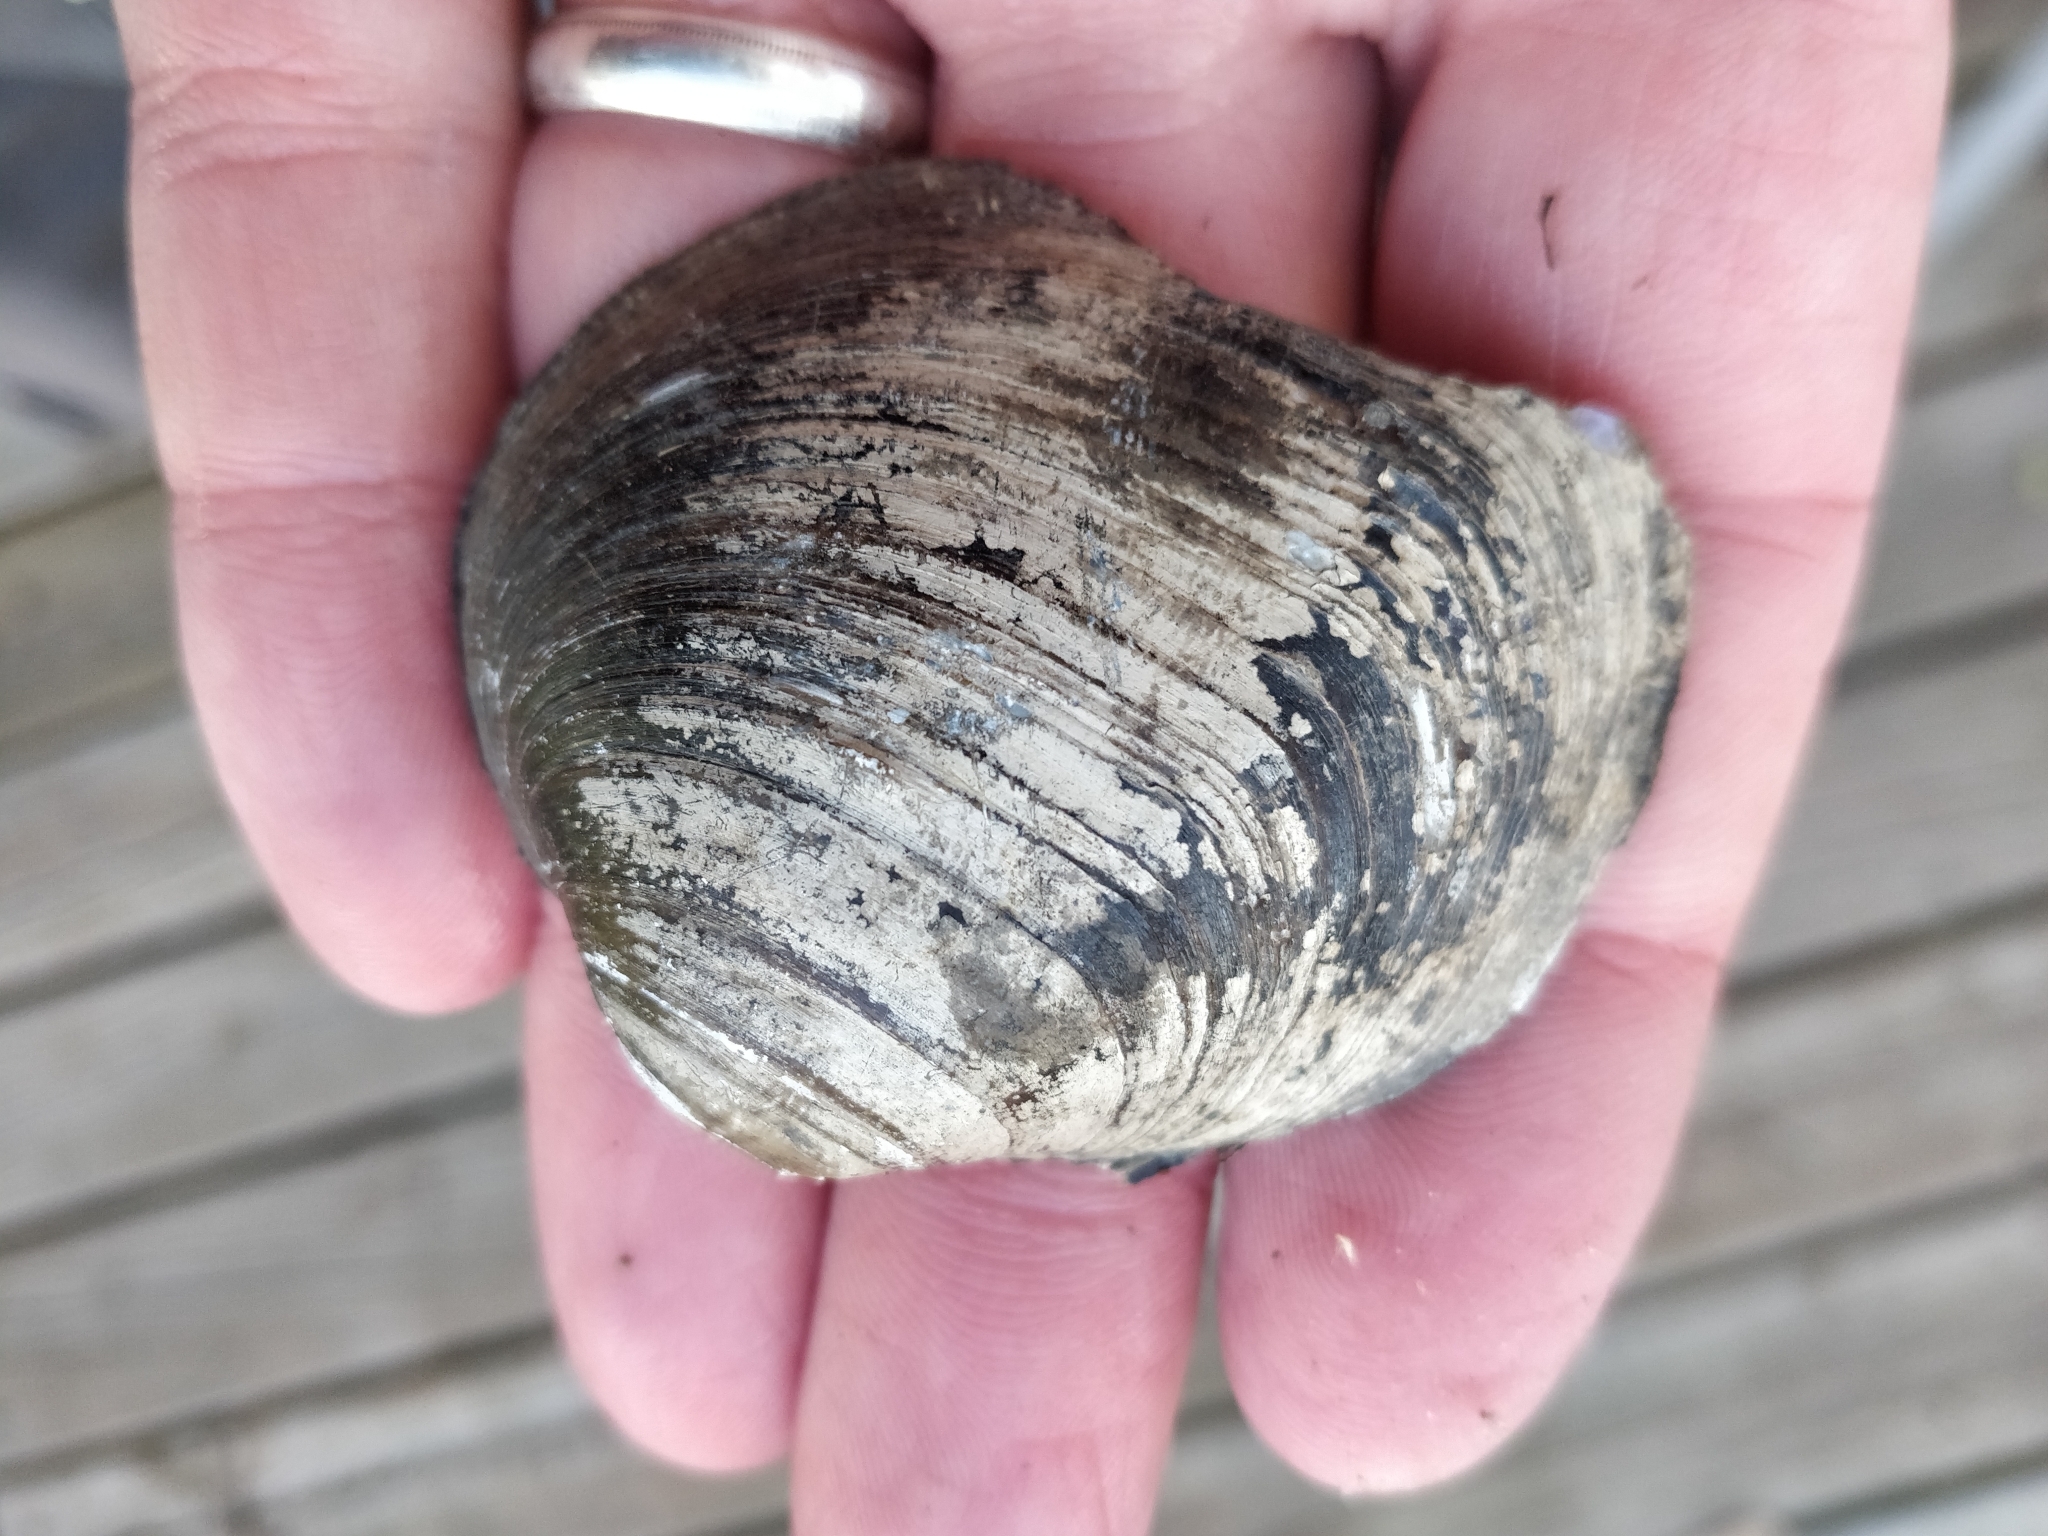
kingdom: Animalia
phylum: Mollusca
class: Bivalvia
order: Unionida
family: Unionidae
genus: Cyclonaias
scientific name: Cyclonaias pustulosa
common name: Pimpleback
